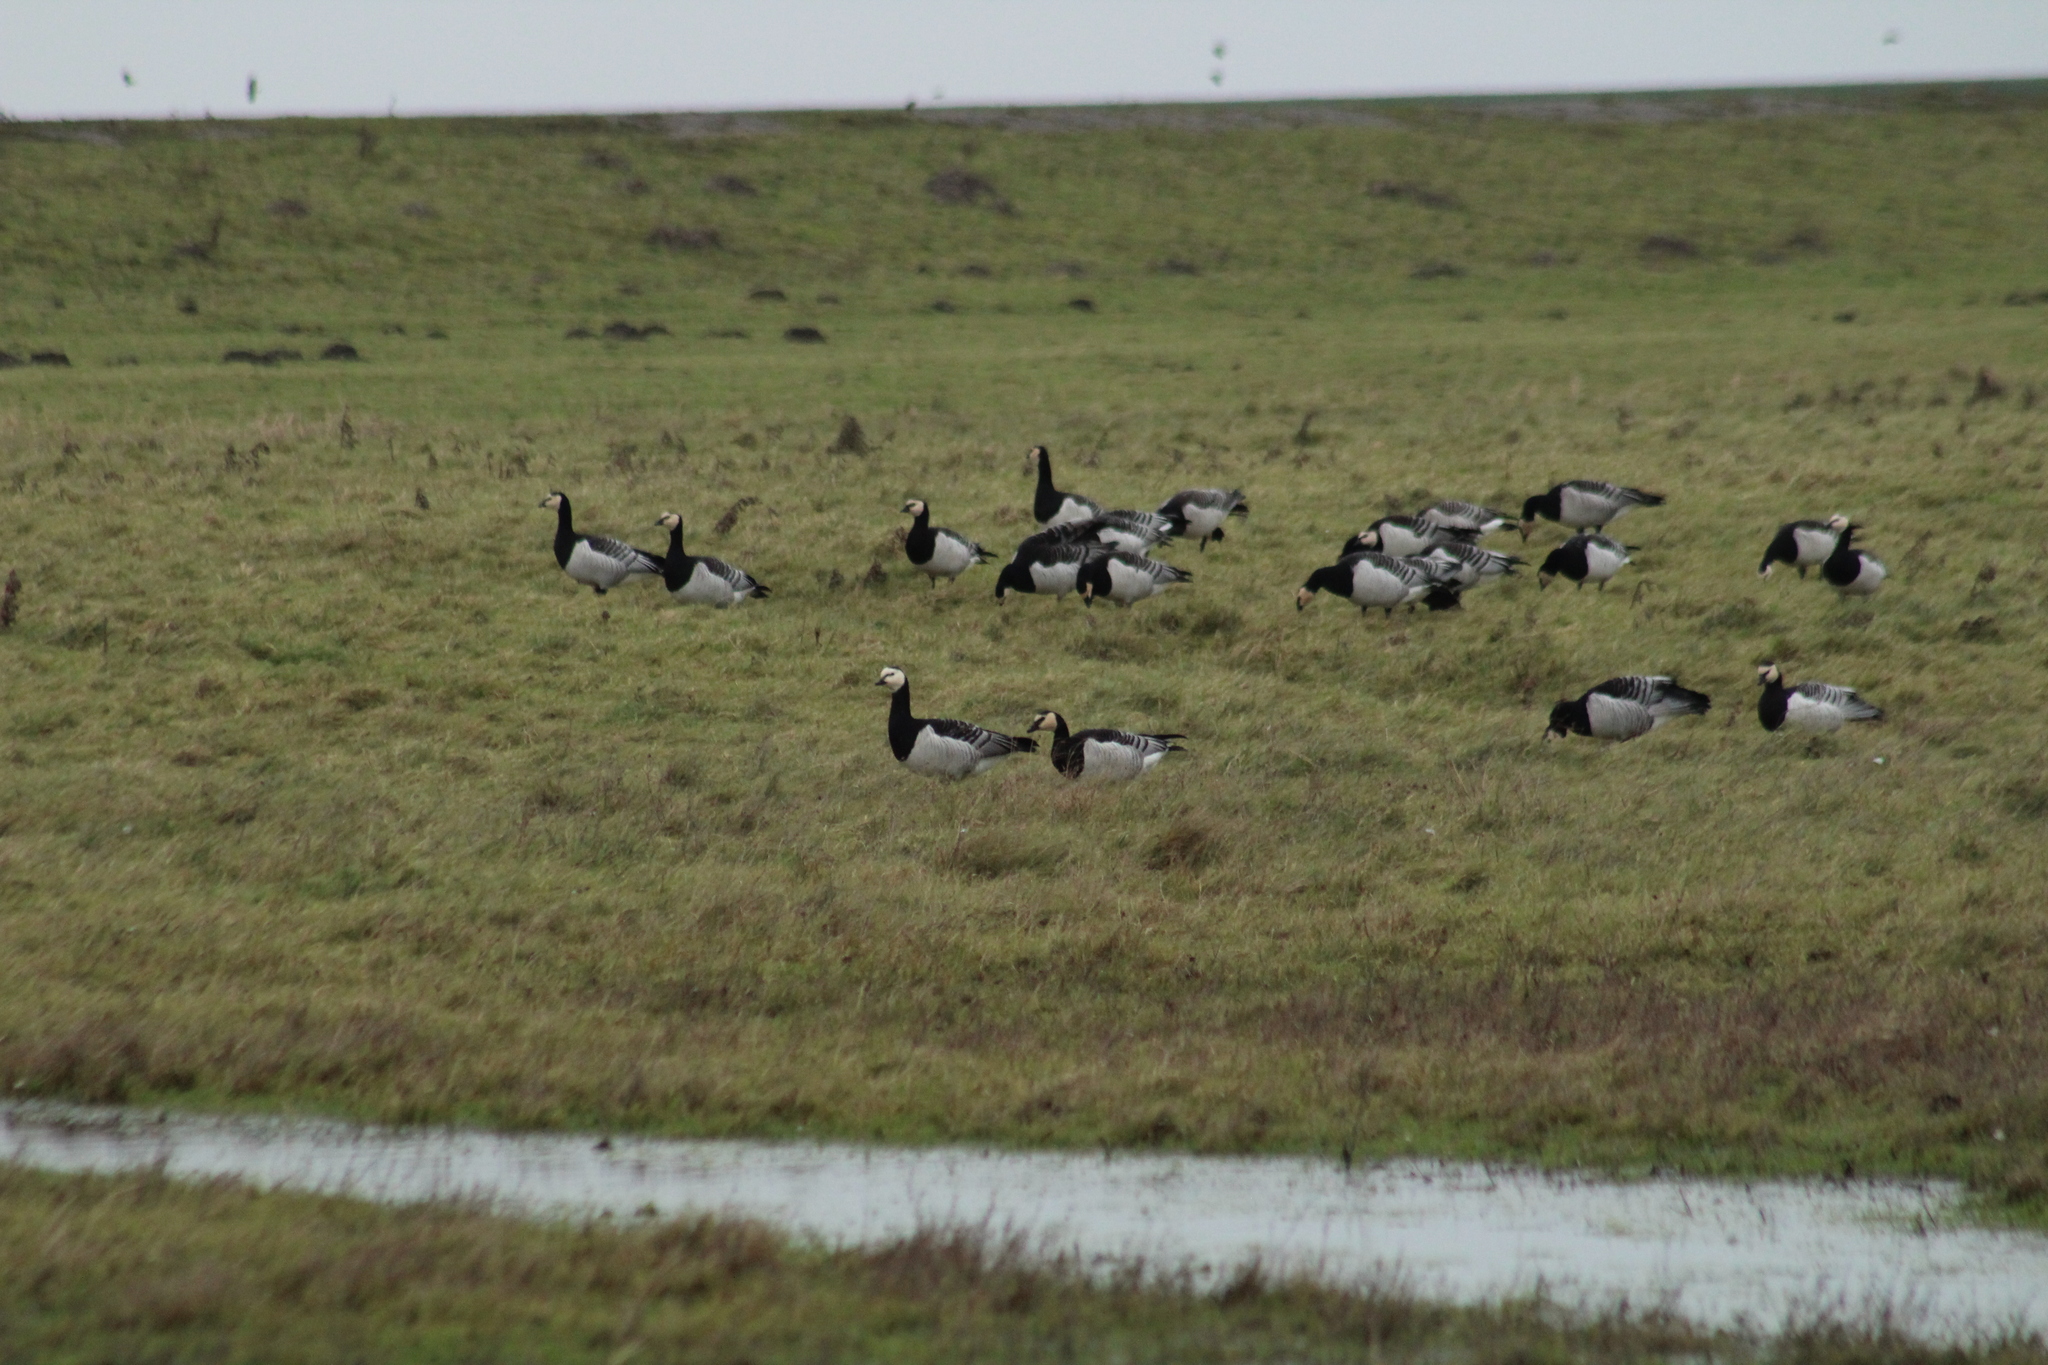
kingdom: Animalia
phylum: Chordata
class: Aves
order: Anseriformes
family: Anatidae
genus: Branta
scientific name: Branta leucopsis
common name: Barnacle goose
